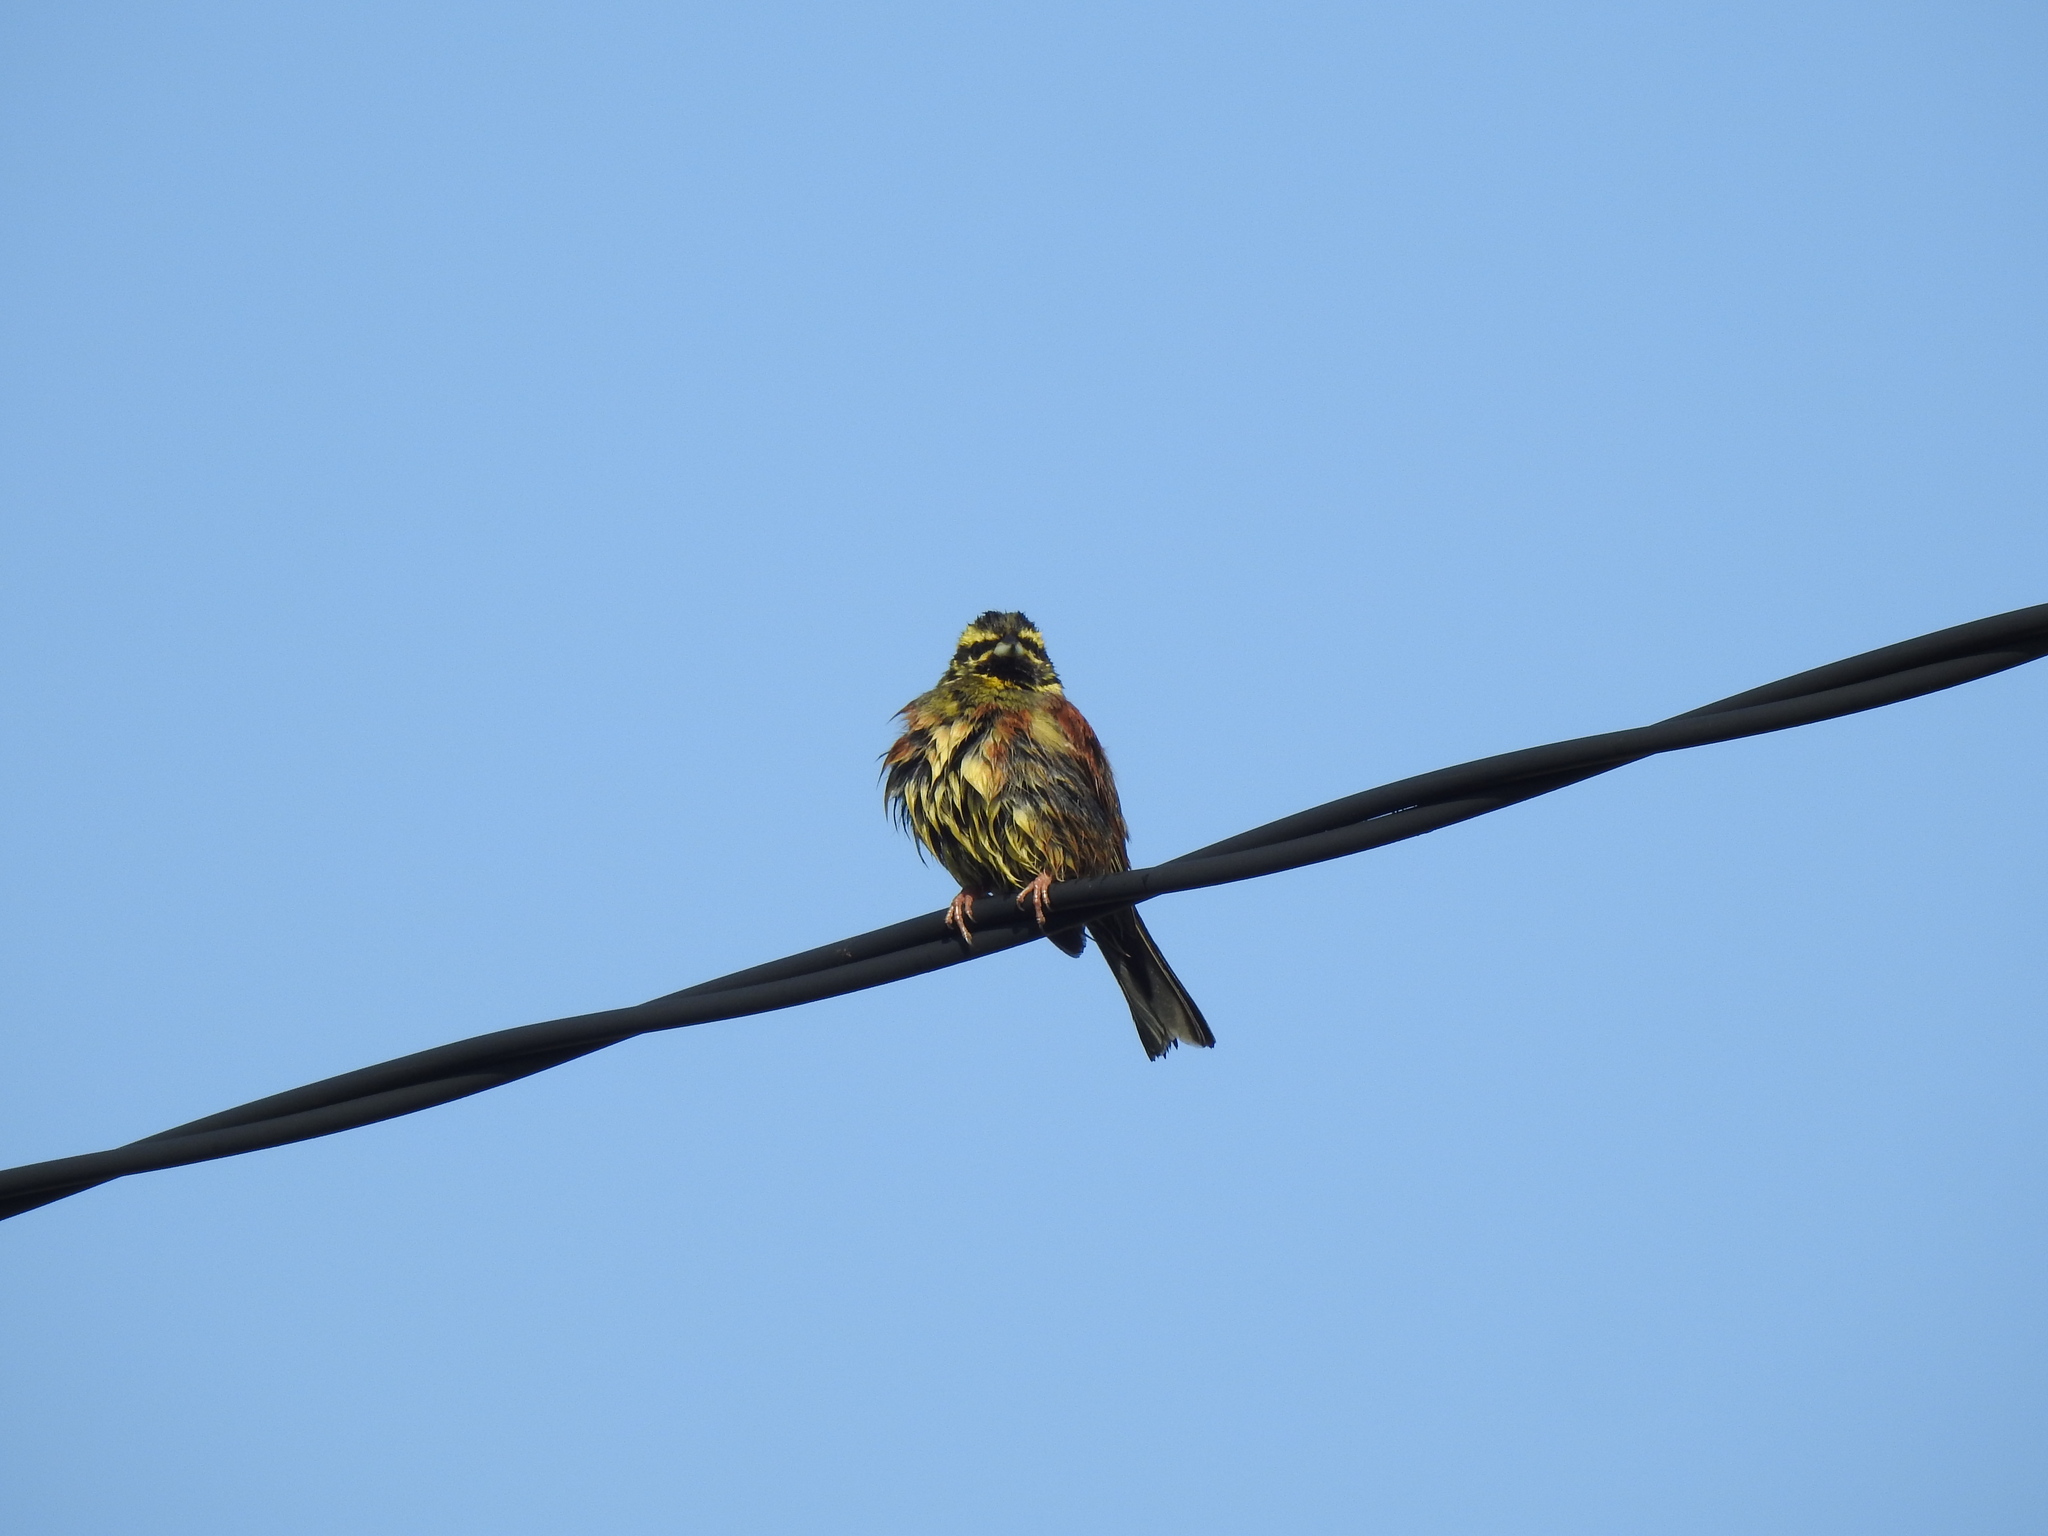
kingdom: Animalia
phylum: Chordata
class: Aves
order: Passeriformes
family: Emberizidae
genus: Emberiza
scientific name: Emberiza cirlus
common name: Cirl bunting
